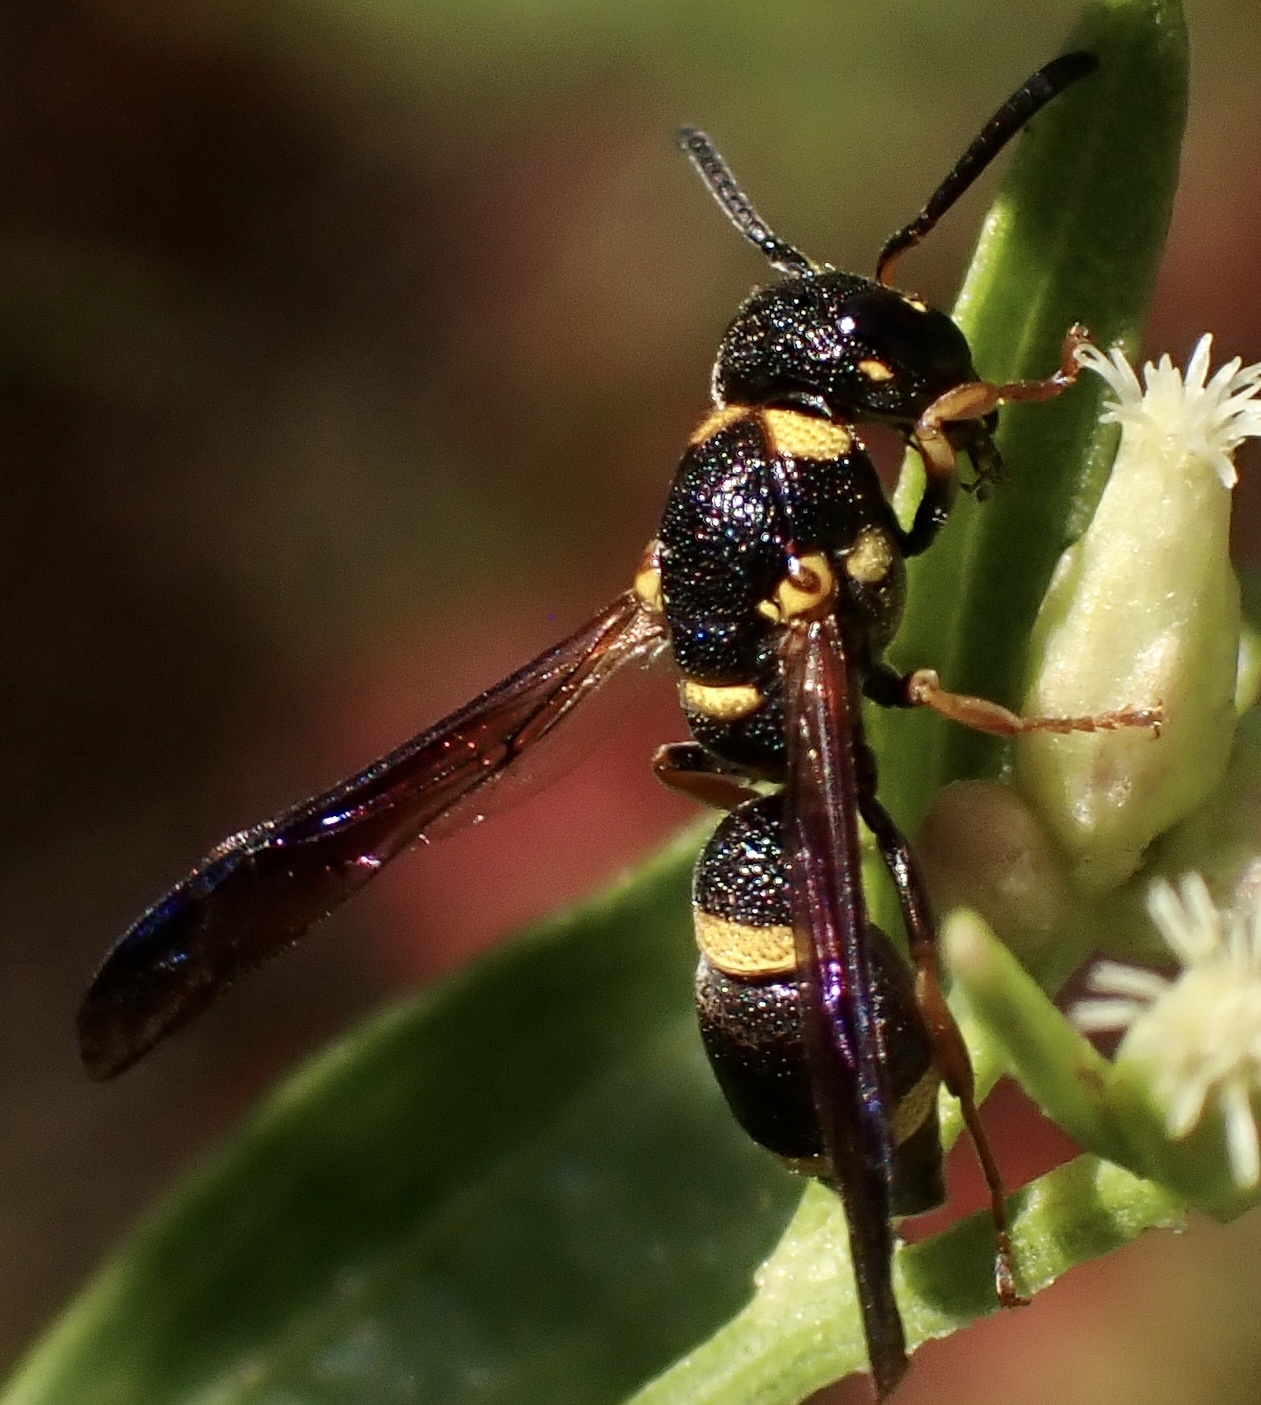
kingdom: Animalia
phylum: Arthropoda
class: Insecta
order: Hymenoptera
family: Eumenidae
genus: Parancistrocerus
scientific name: Parancistrocerus perennis
